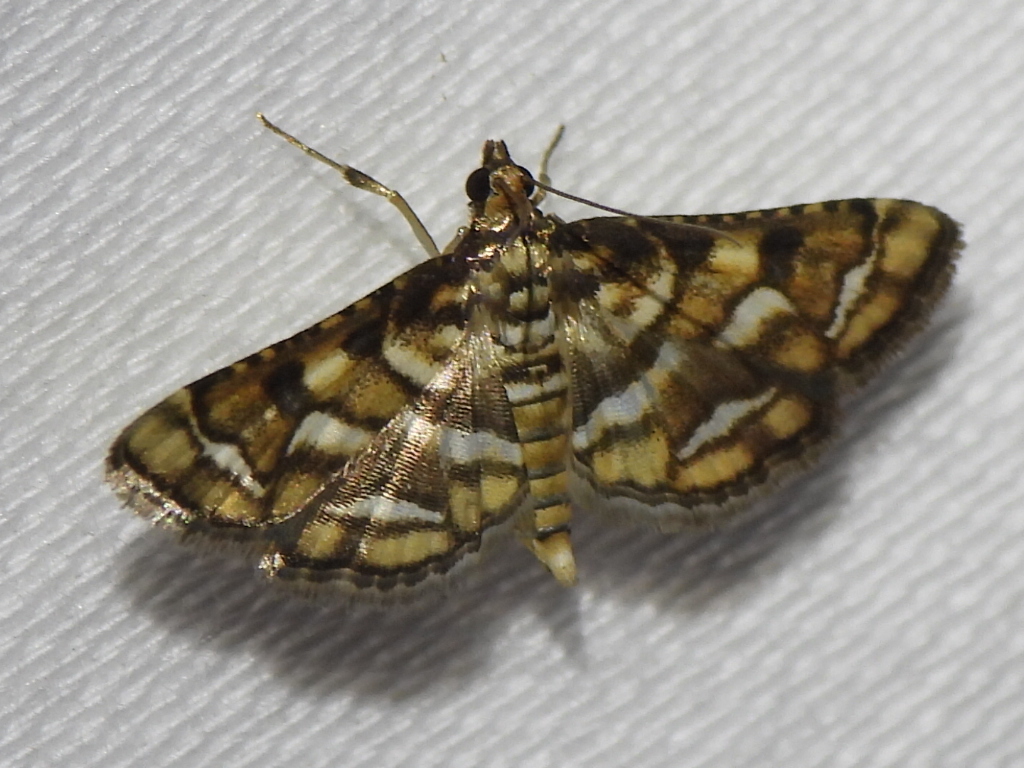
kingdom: Animalia
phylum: Arthropoda
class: Insecta
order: Lepidoptera
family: Crambidae
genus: Hileithia
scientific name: Hileithia magualis
